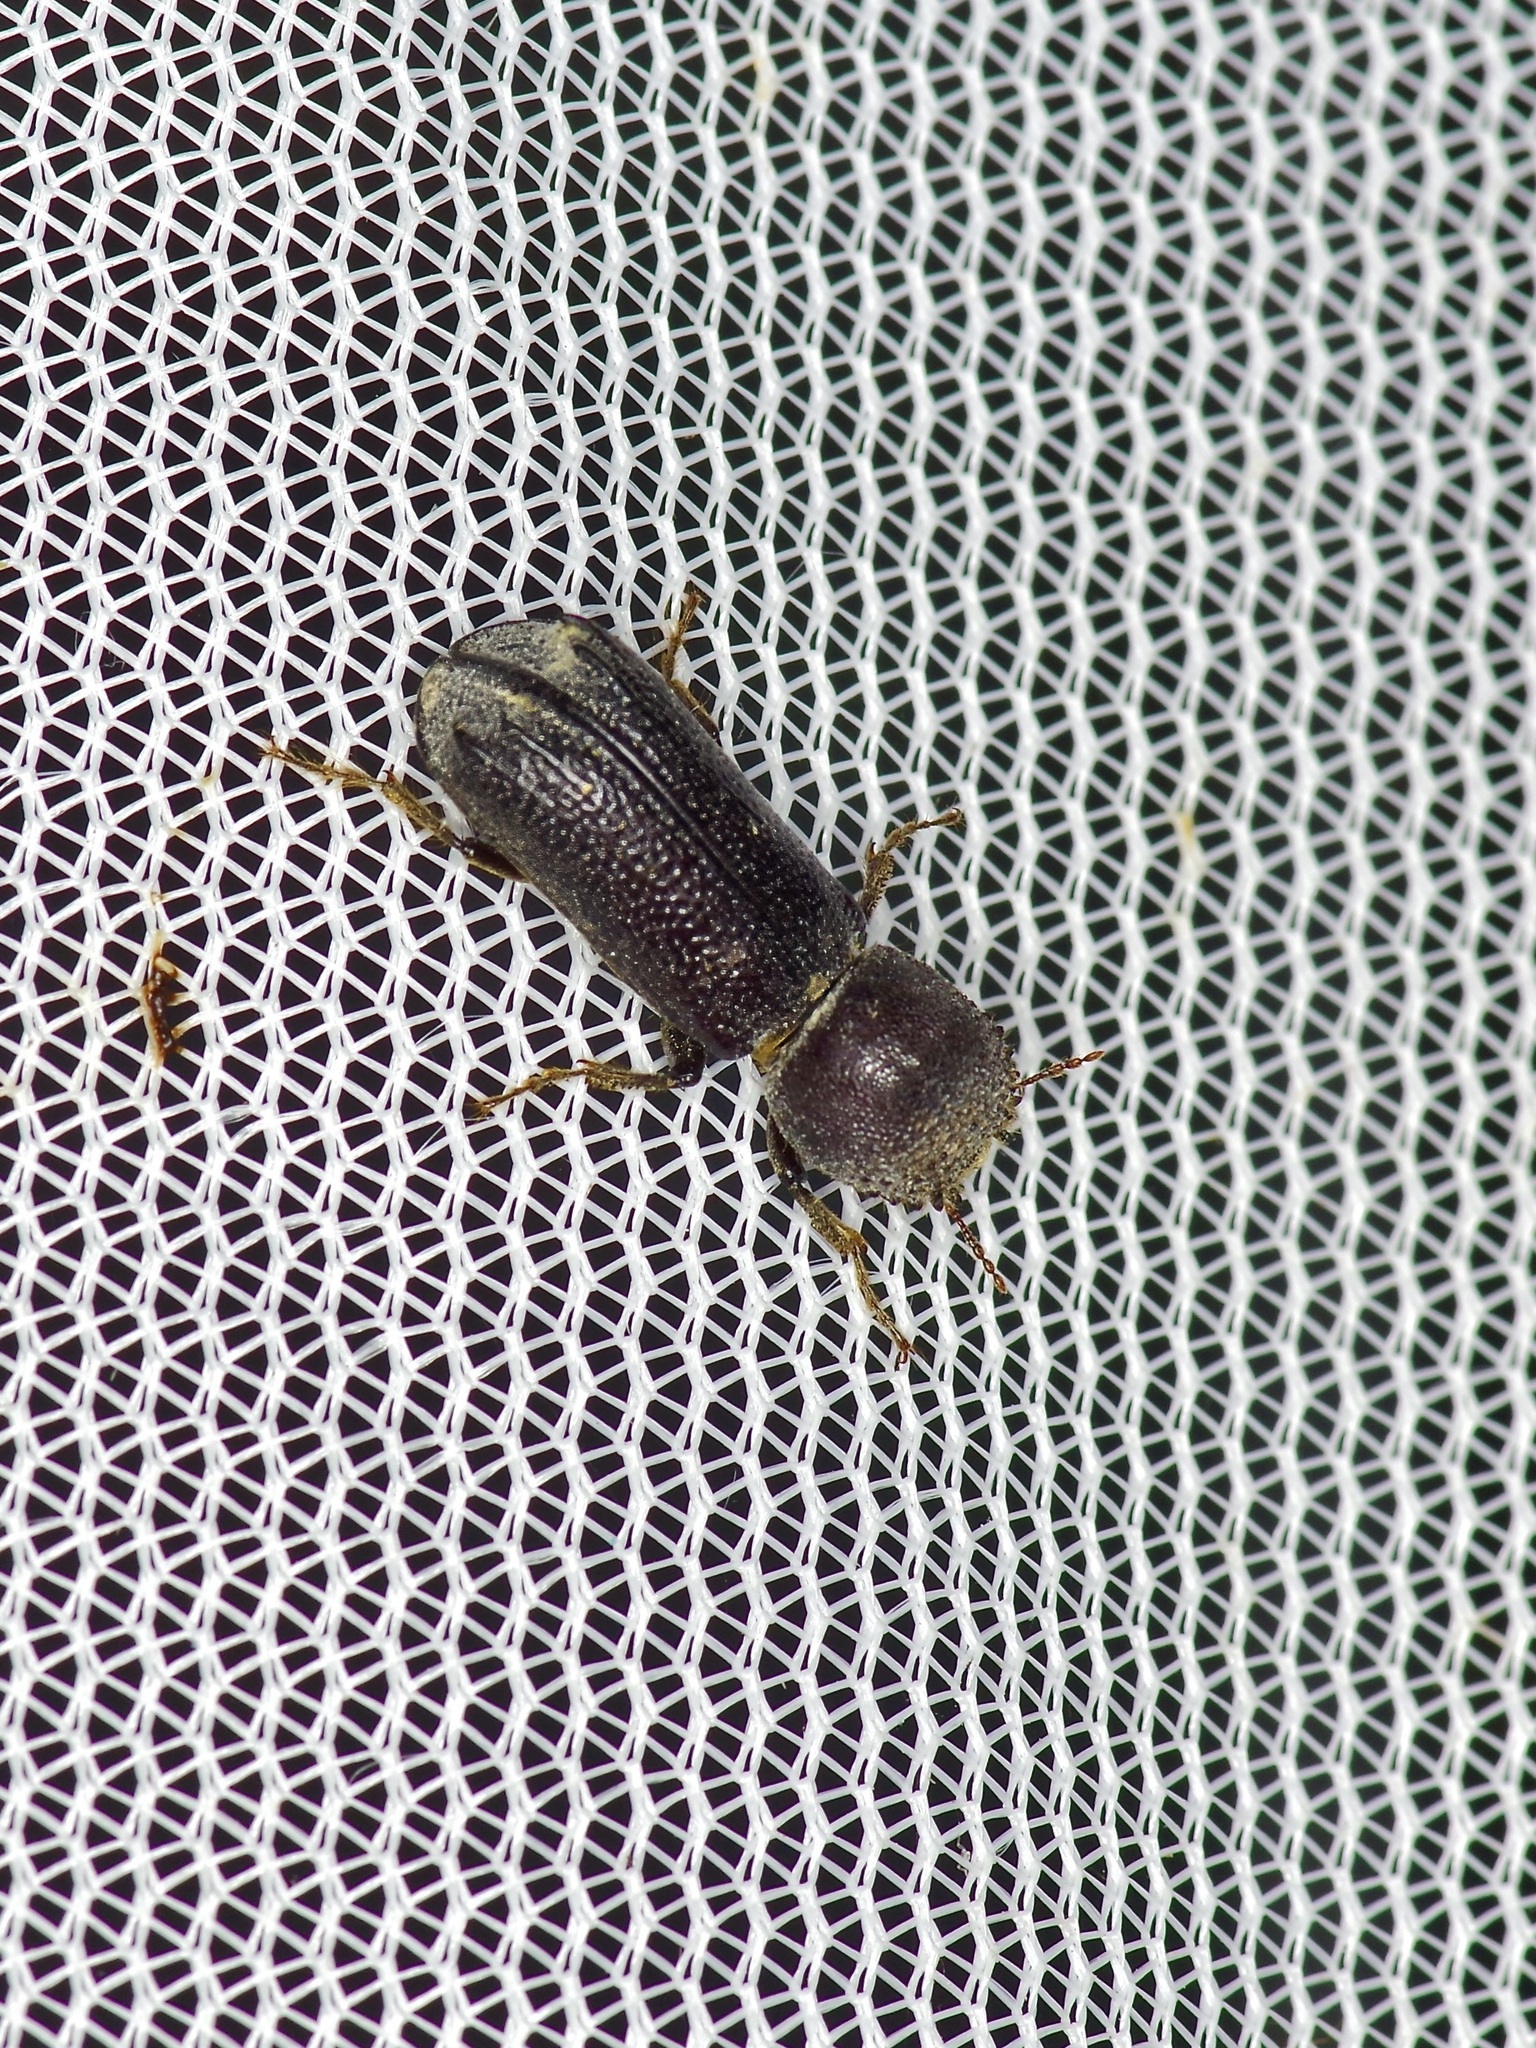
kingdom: Animalia
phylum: Arthropoda
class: Insecta
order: Coleoptera
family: Bostrichidae
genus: Amphicerus
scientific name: Amphicerus cornutus
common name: Powderpost beetle
